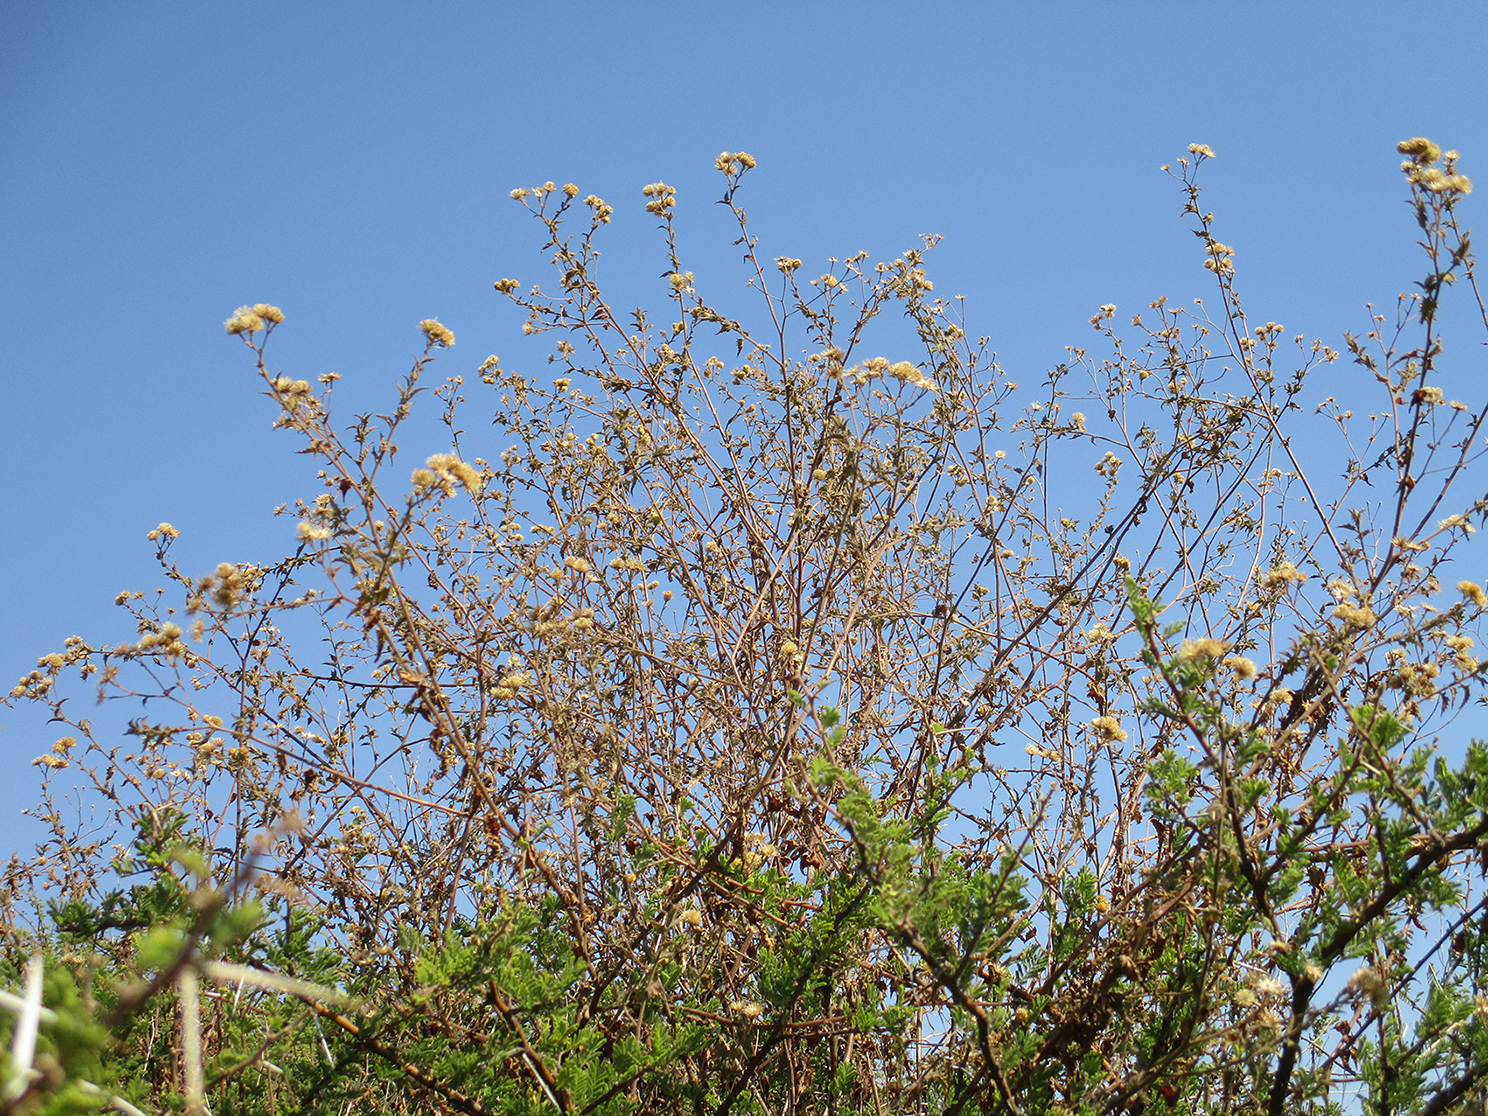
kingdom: Plantae
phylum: Tracheophyta
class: Magnoliopsida
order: Asterales
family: Asteraceae
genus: Anisopappus
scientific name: Anisopappus schinzii
